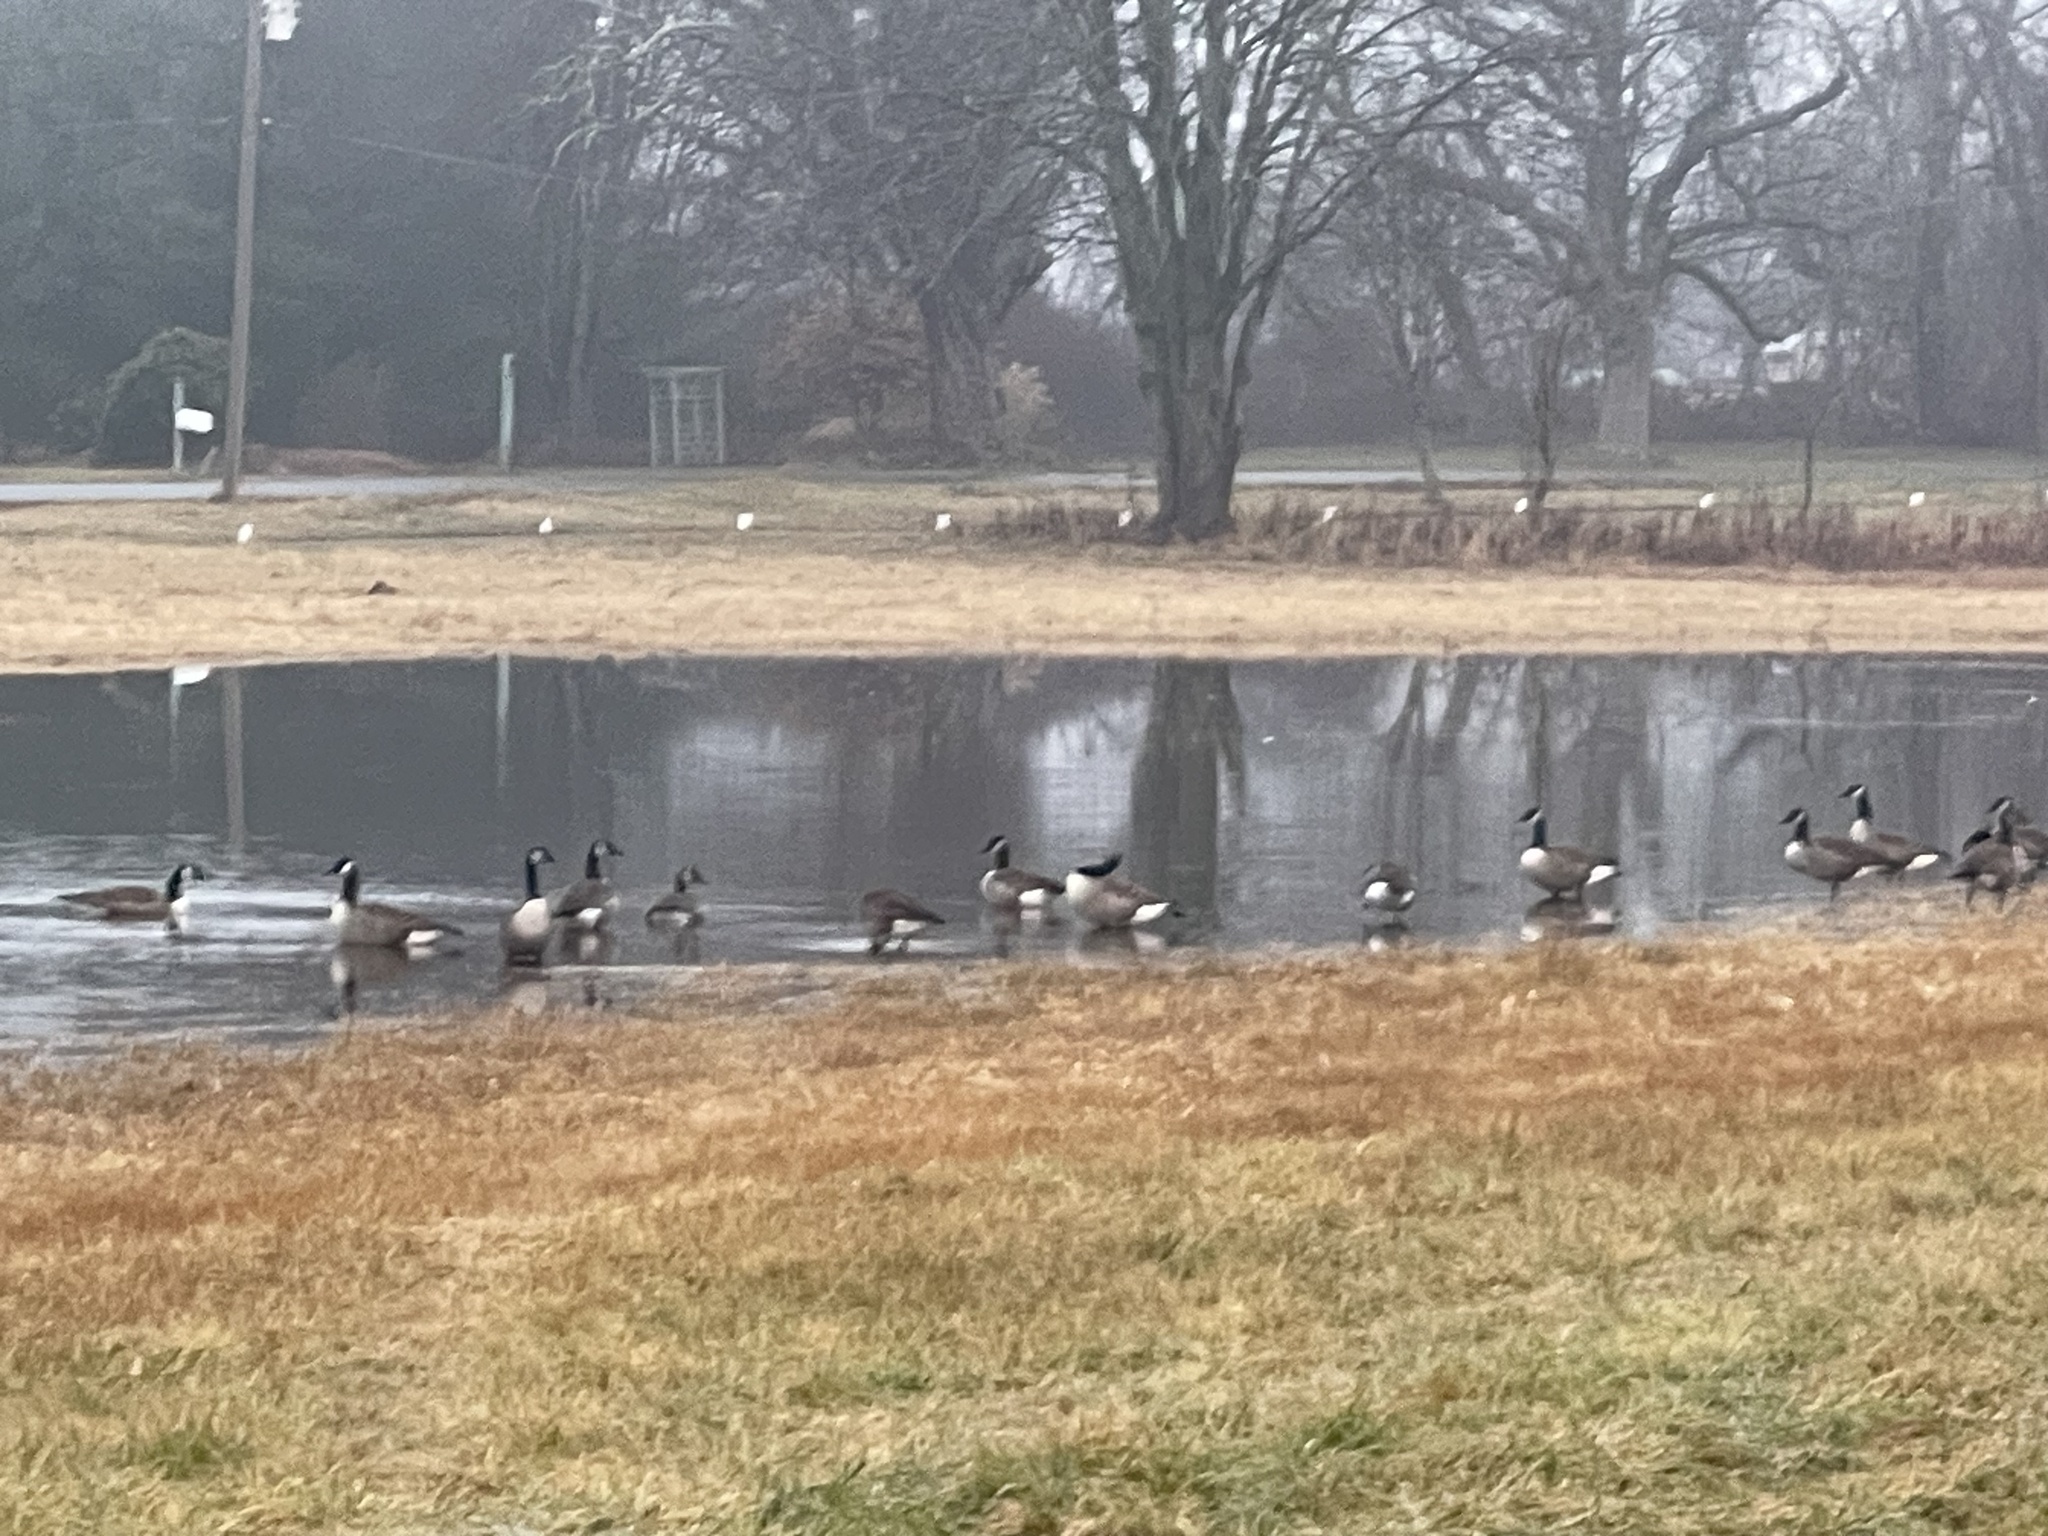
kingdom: Animalia
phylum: Chordata
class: Aves
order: Anseriformes
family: Anatidae
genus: Branta
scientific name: Branta canadensis
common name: Canada goose
